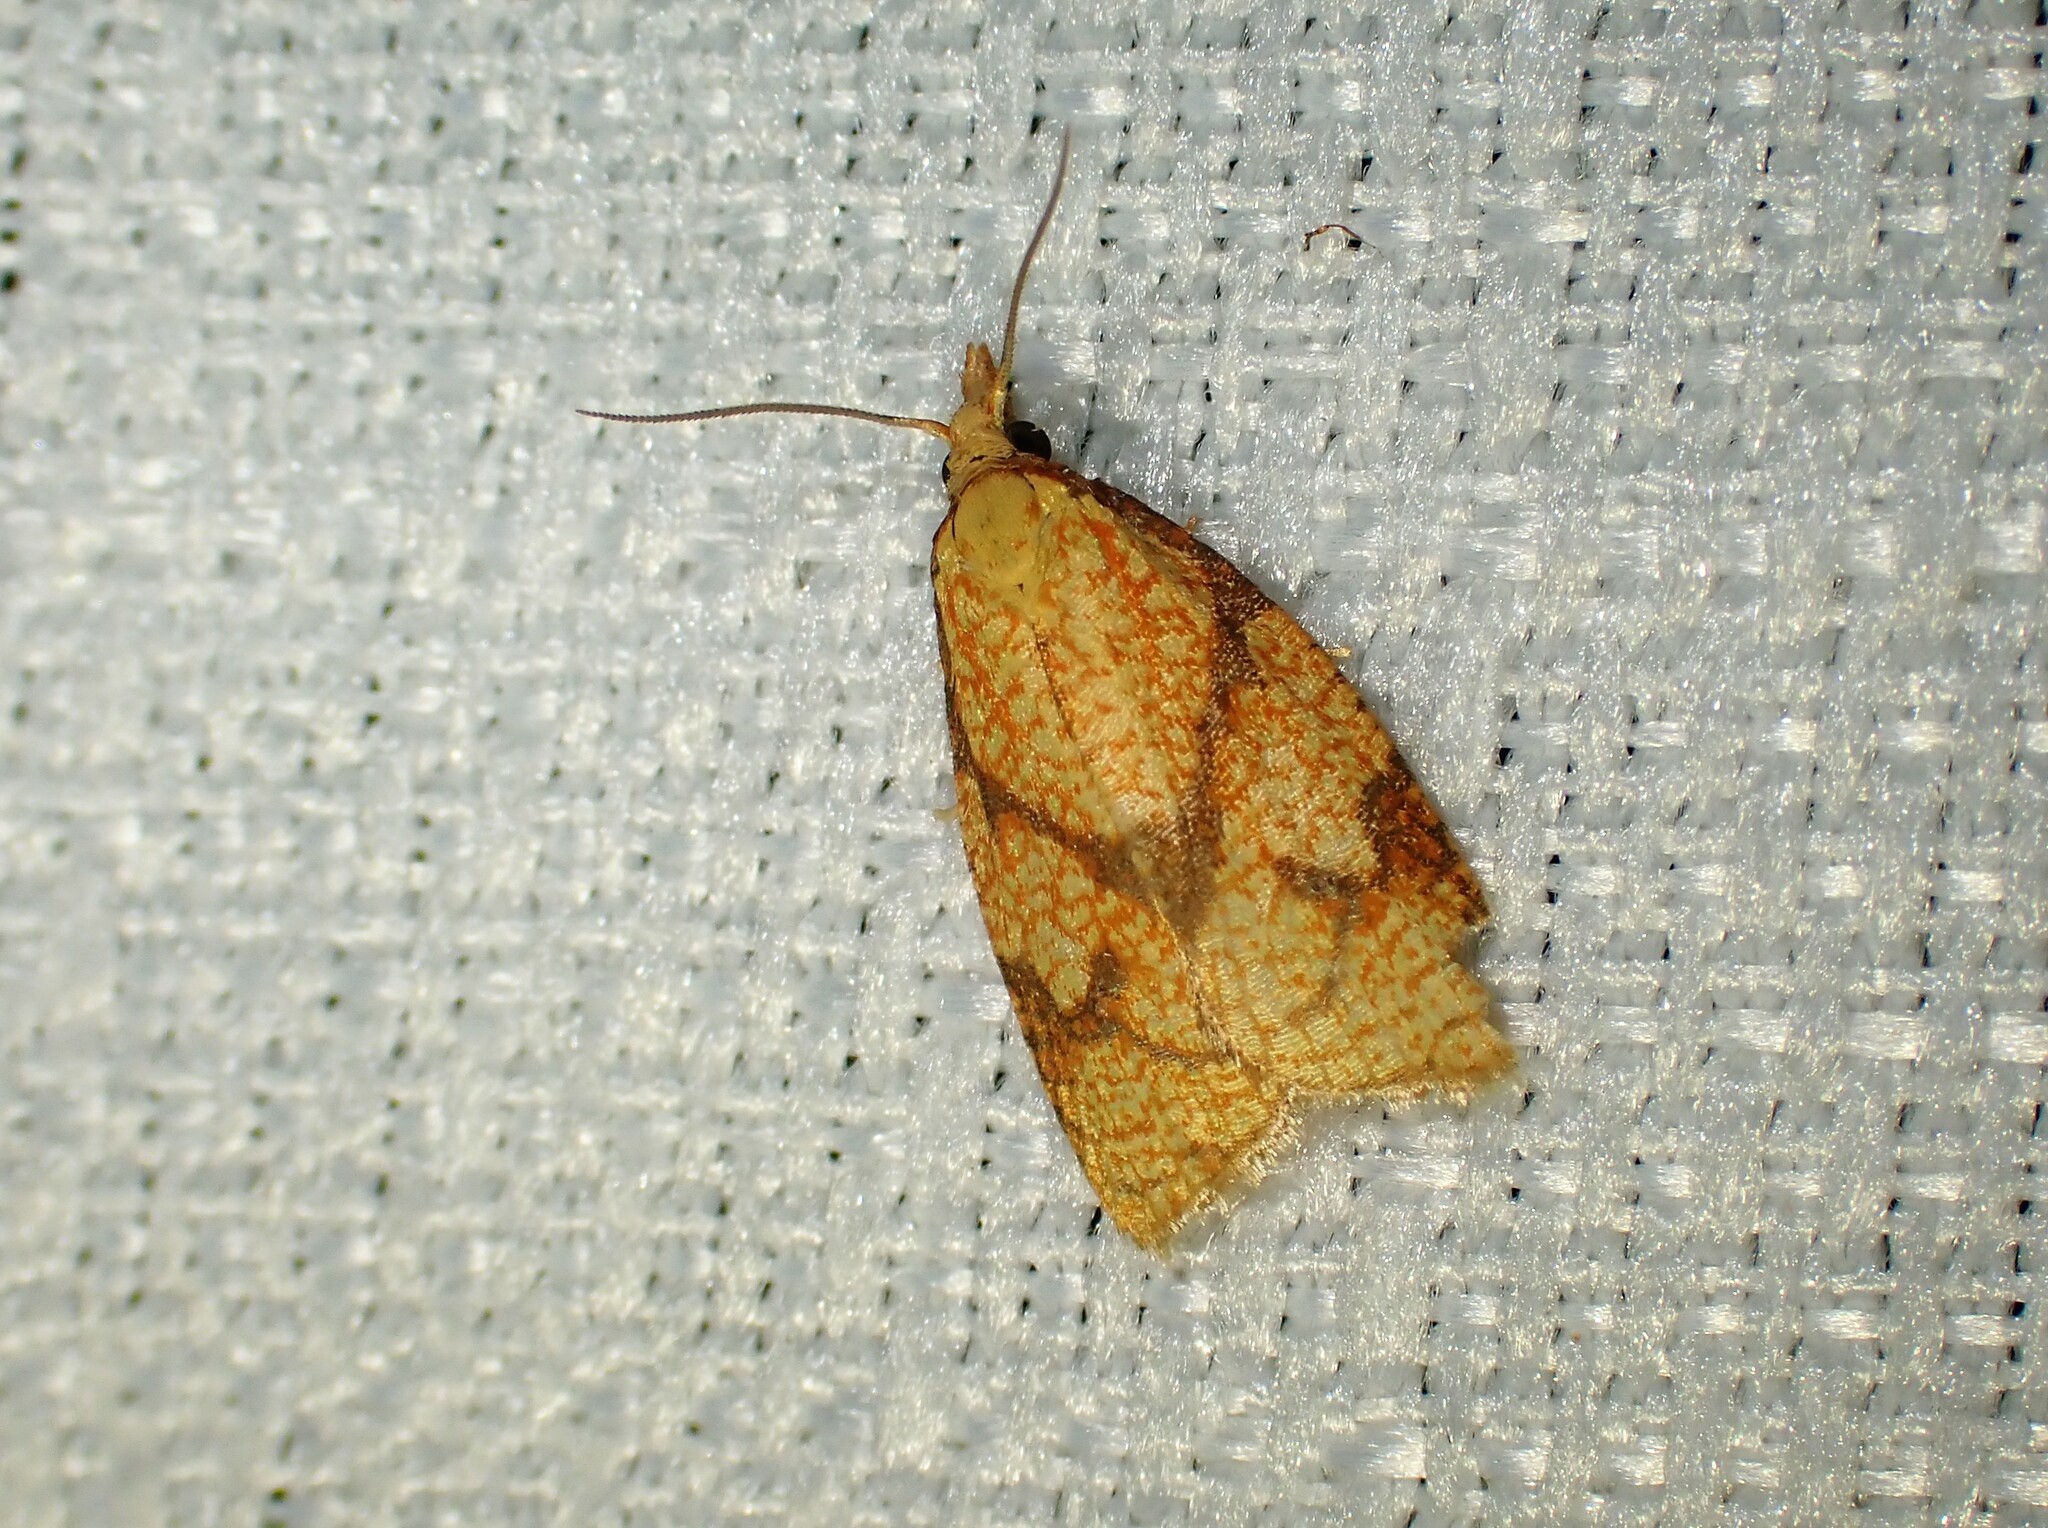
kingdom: Animalia
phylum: Arthropoda
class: Insecta
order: Lepidoptera
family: Tortricidae
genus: Cenopis
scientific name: Cenopis reticulatana
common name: Reticulated fruitworm moth
